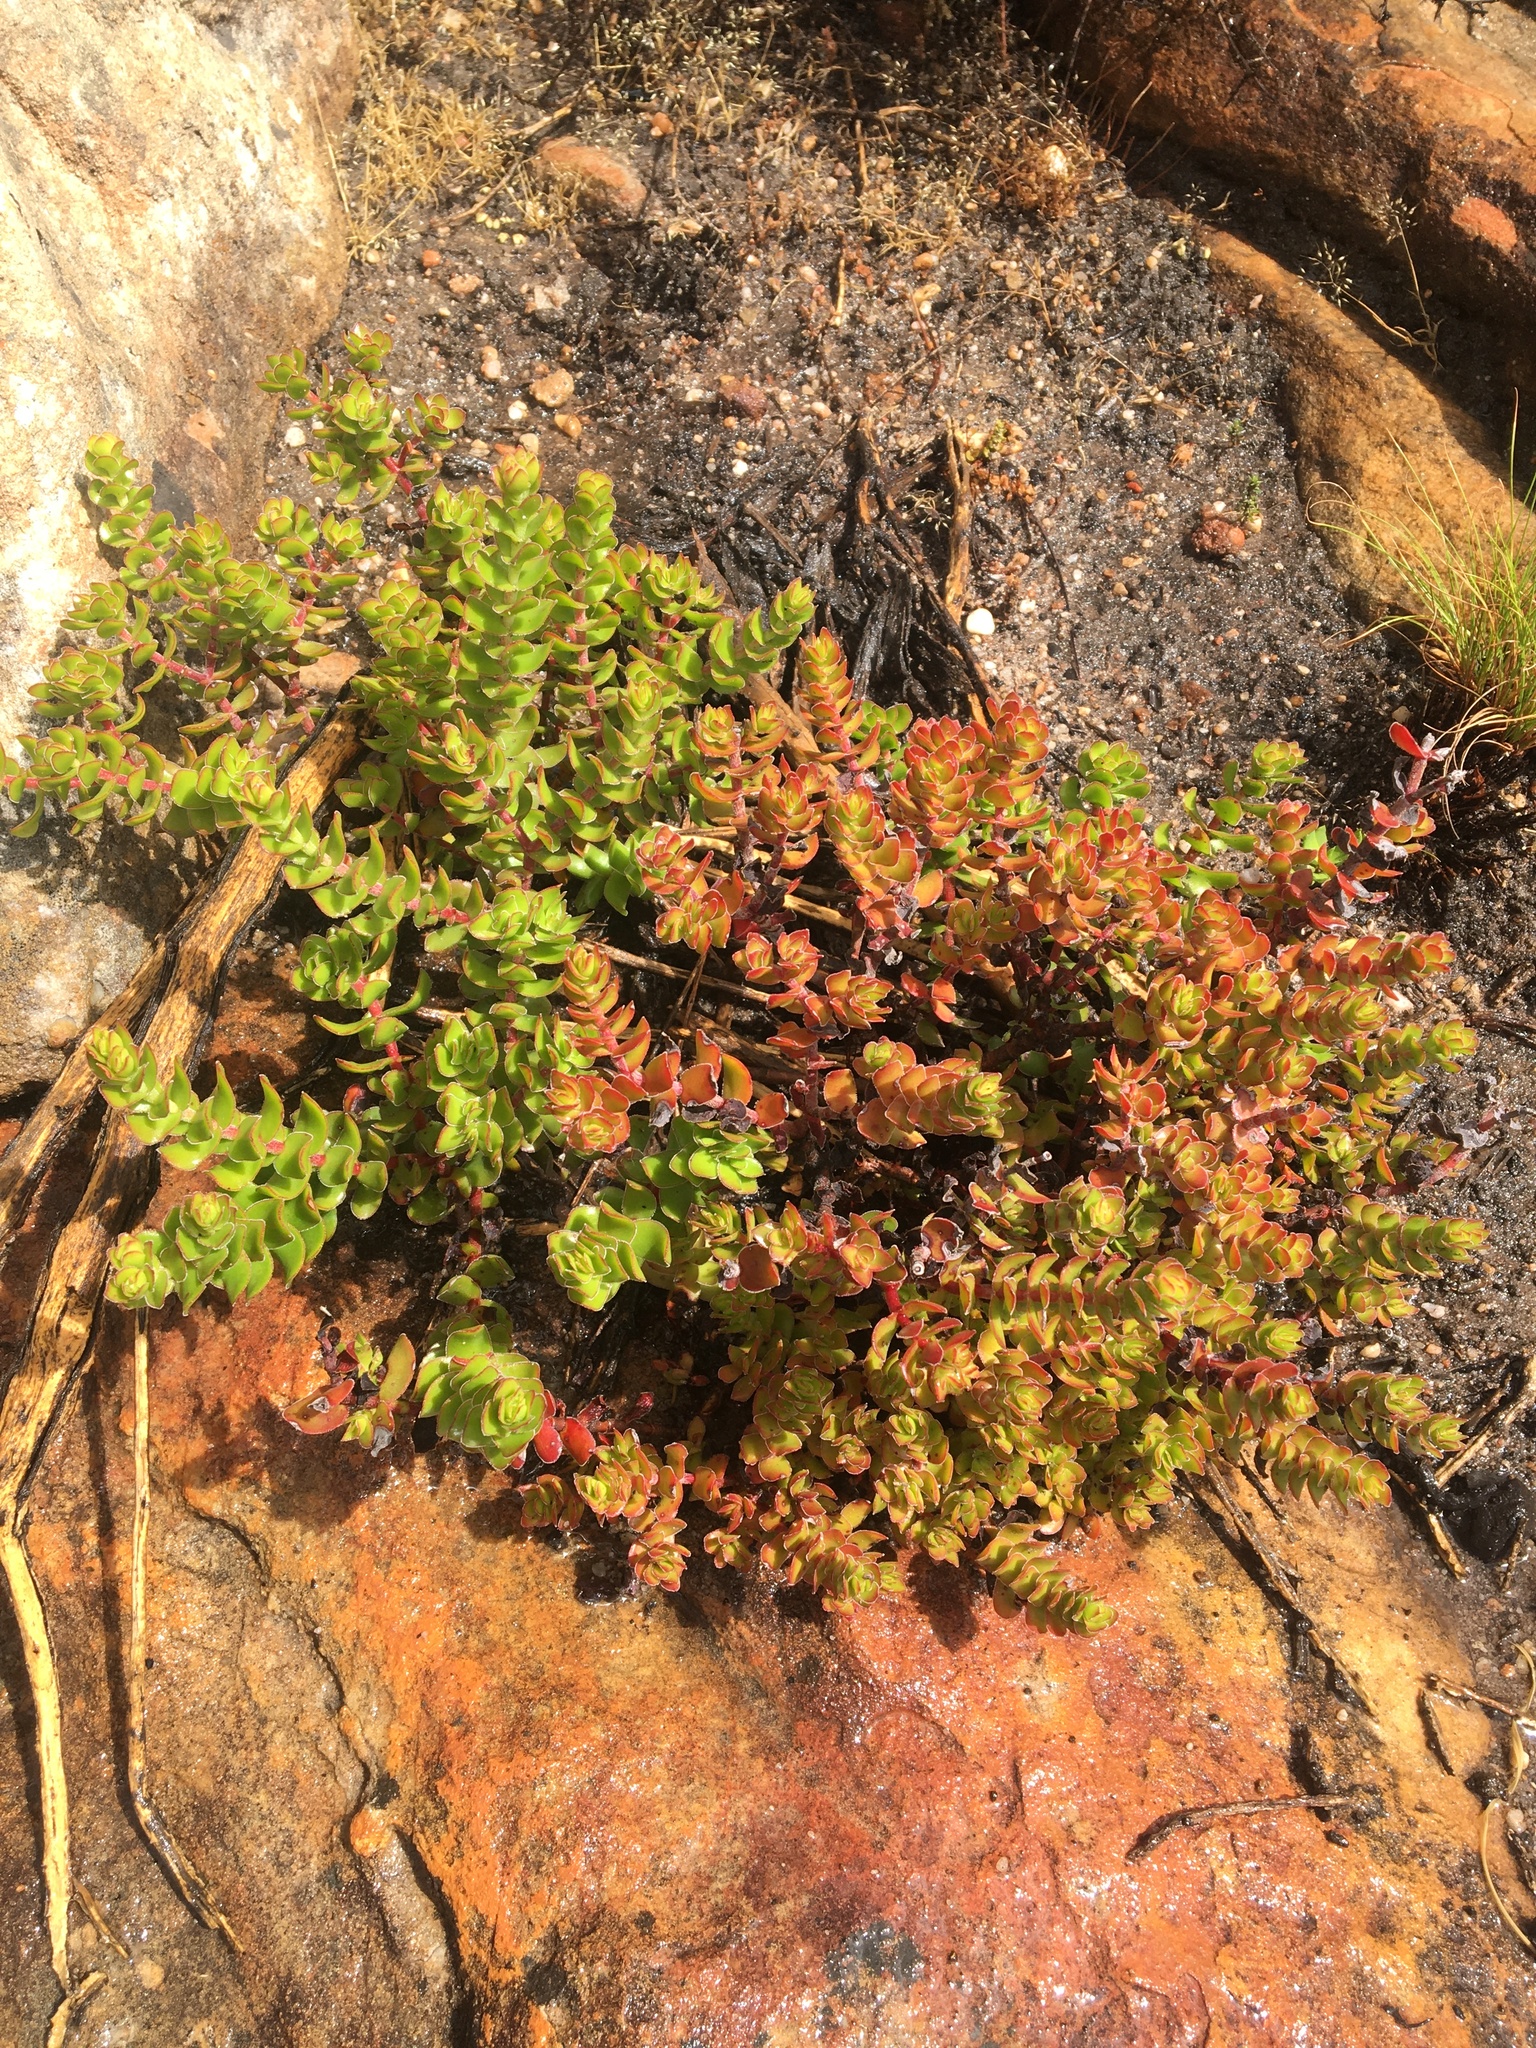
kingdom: Plantae
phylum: Tracheophyta
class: Magnoliopsida
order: Saxifragales
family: Crassulaceae
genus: Crassula
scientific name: Crassula undulata
